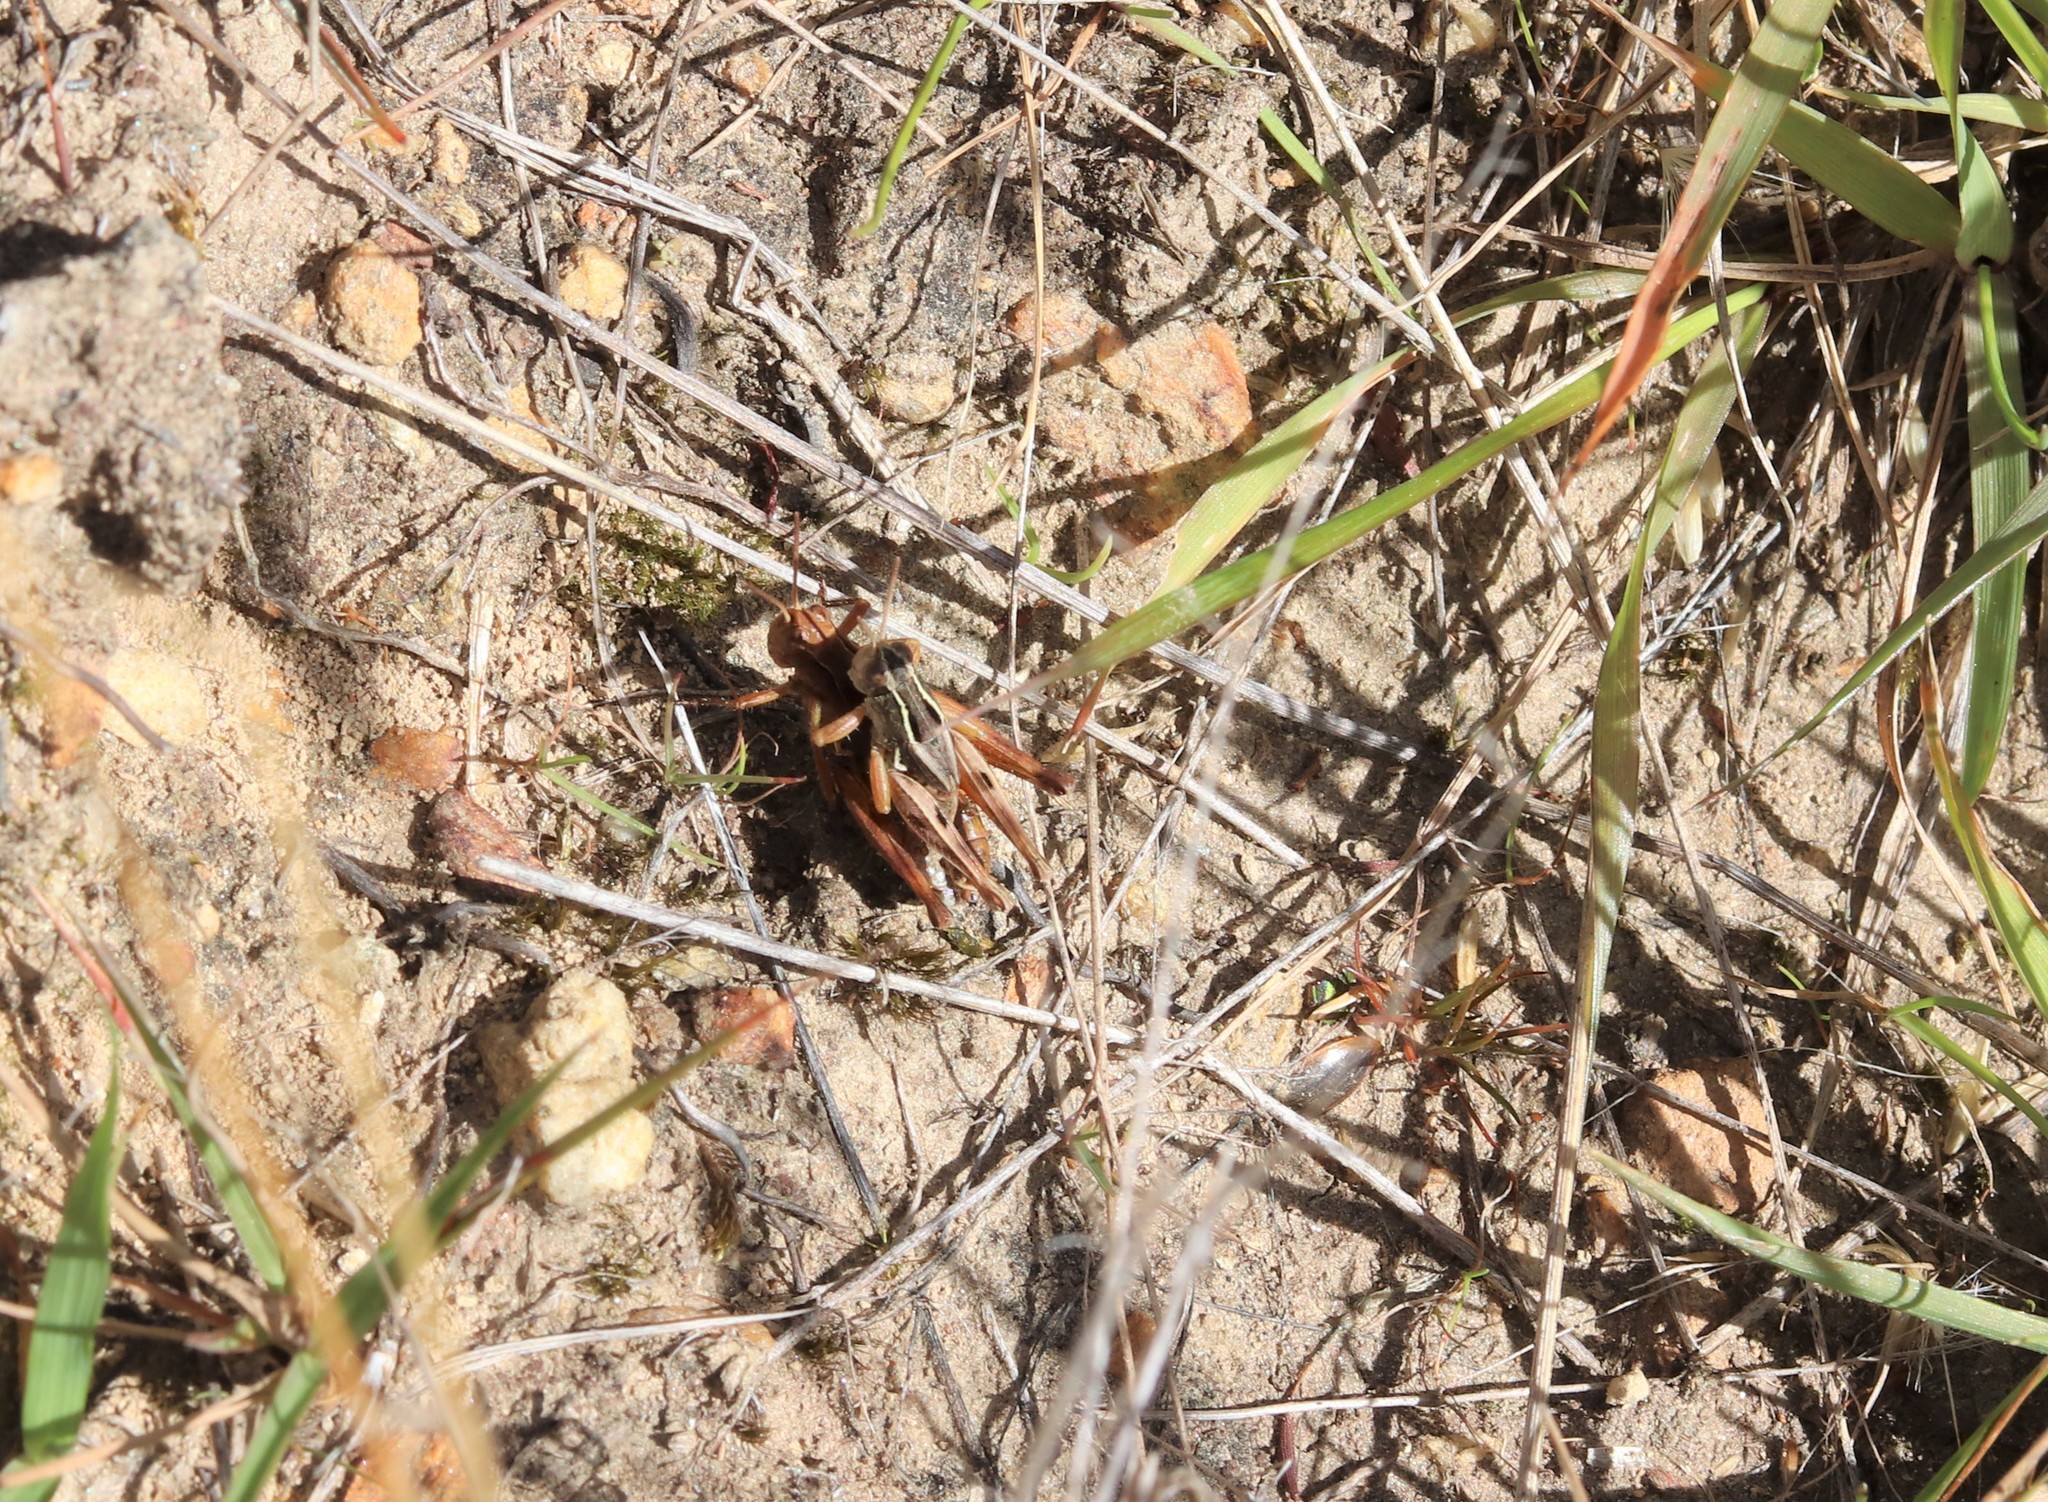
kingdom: Animalia
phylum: Arthropoda
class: Insecta
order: Orthoptera
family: Acrididae
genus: Phaulacridium
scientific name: Phaulacridium marginale
